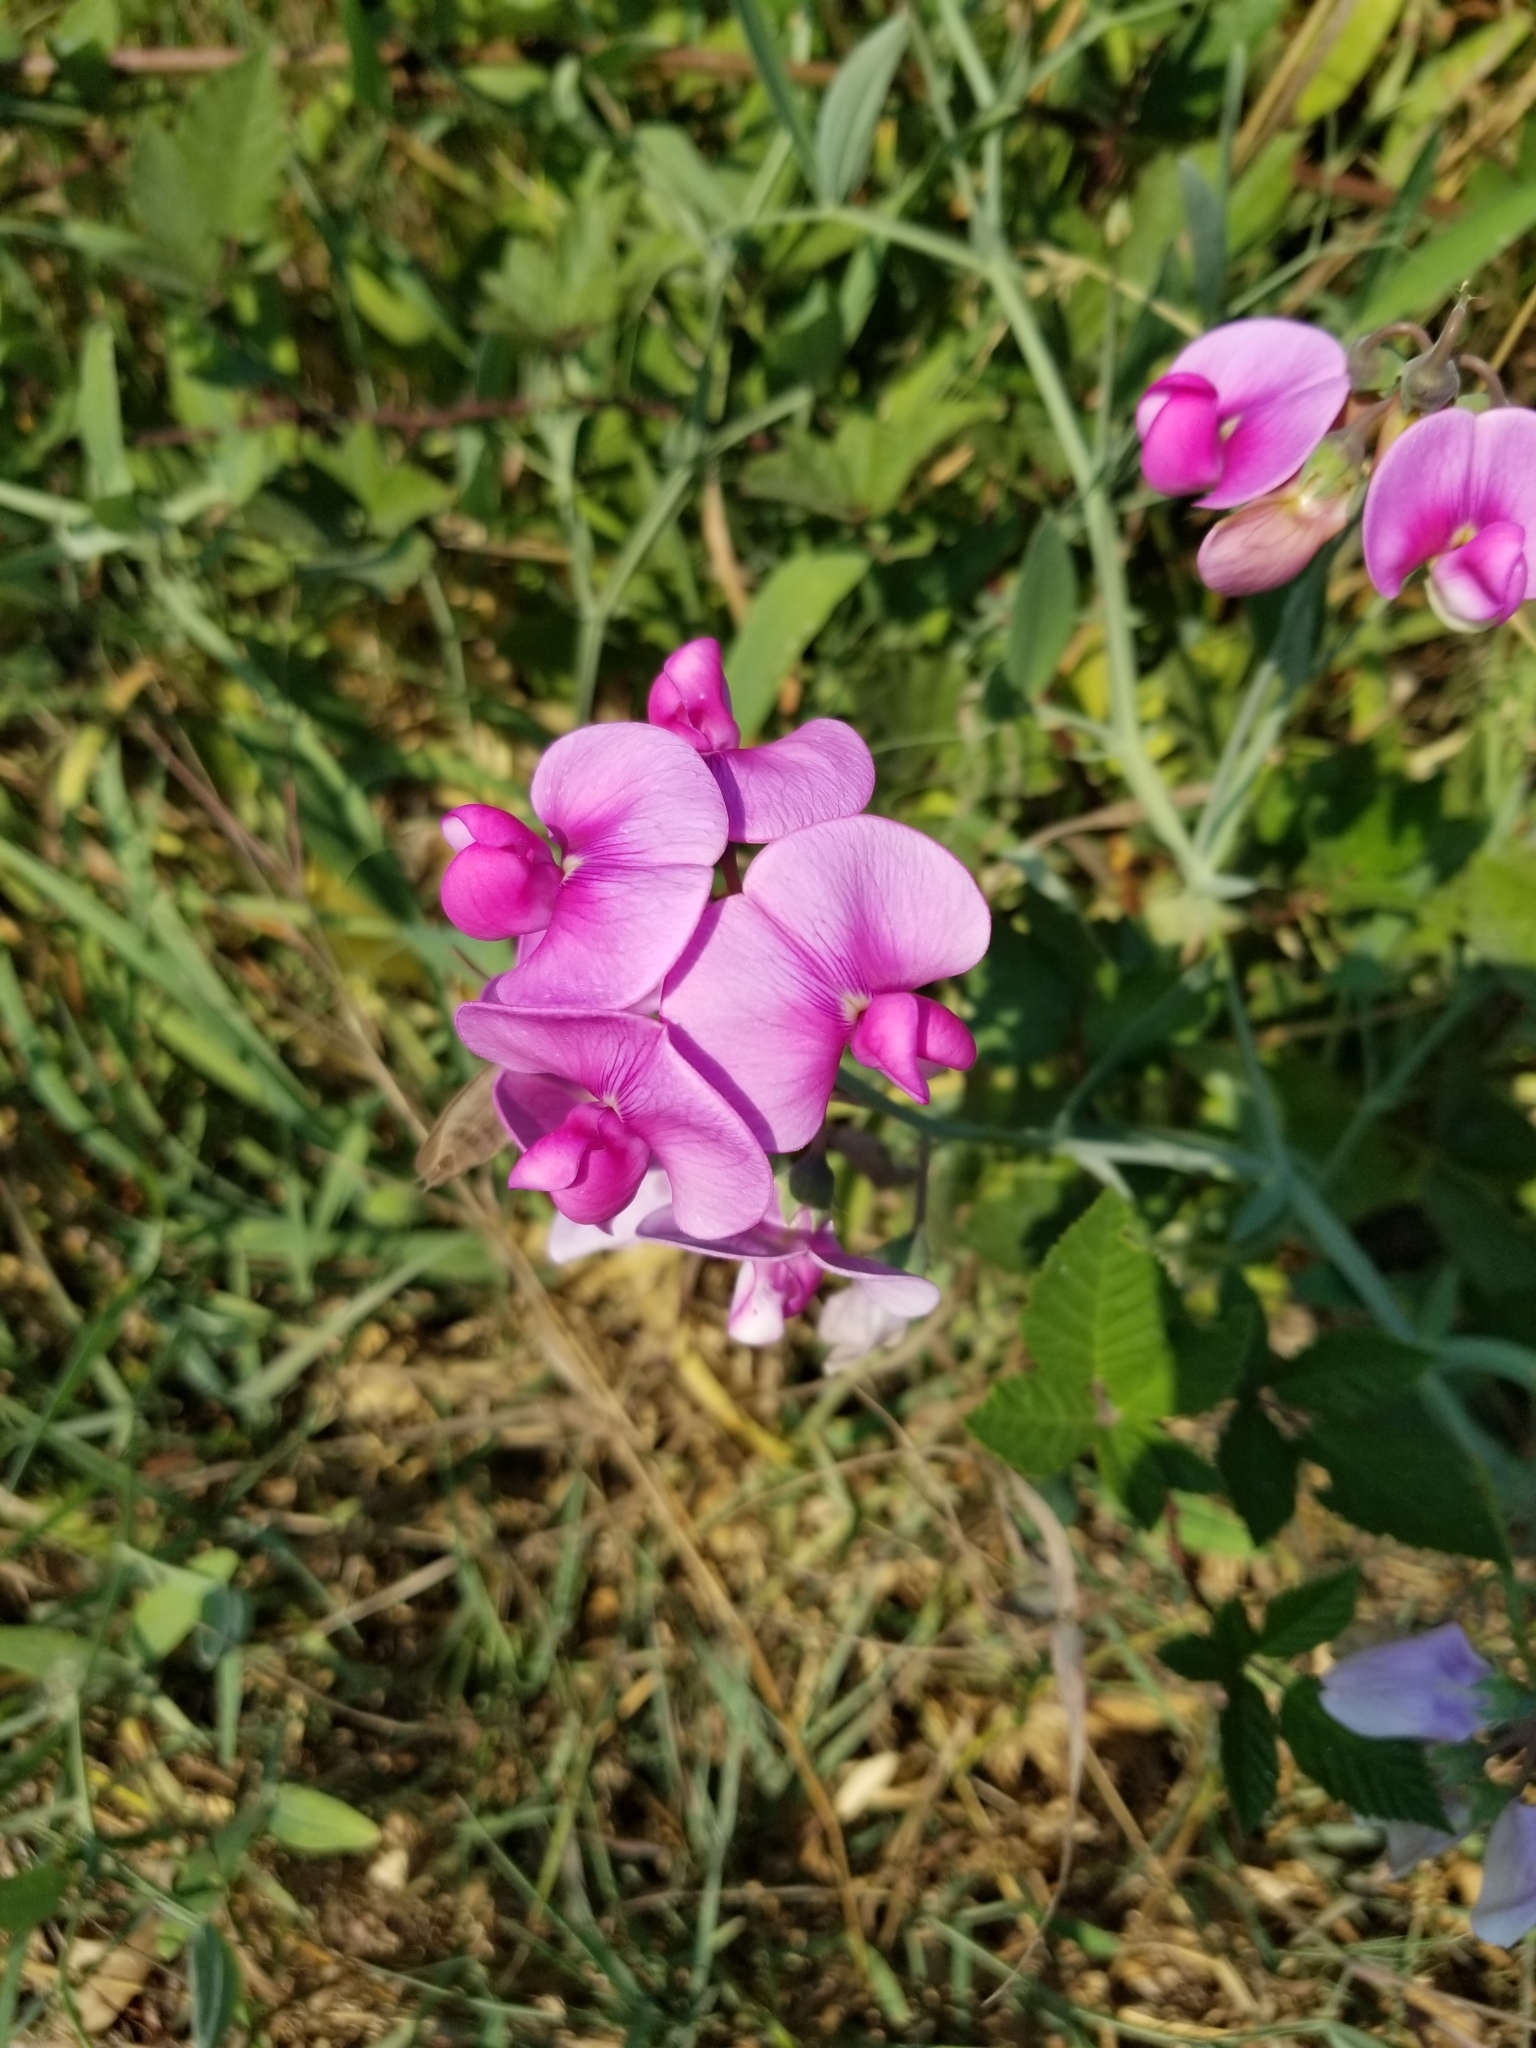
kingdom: Plantae
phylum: Tracheophyta
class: Magnoliopsida
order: Fabales
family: Fabaceae
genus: Lathyrus
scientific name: Lathyrus latifolius
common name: Perennial pea
